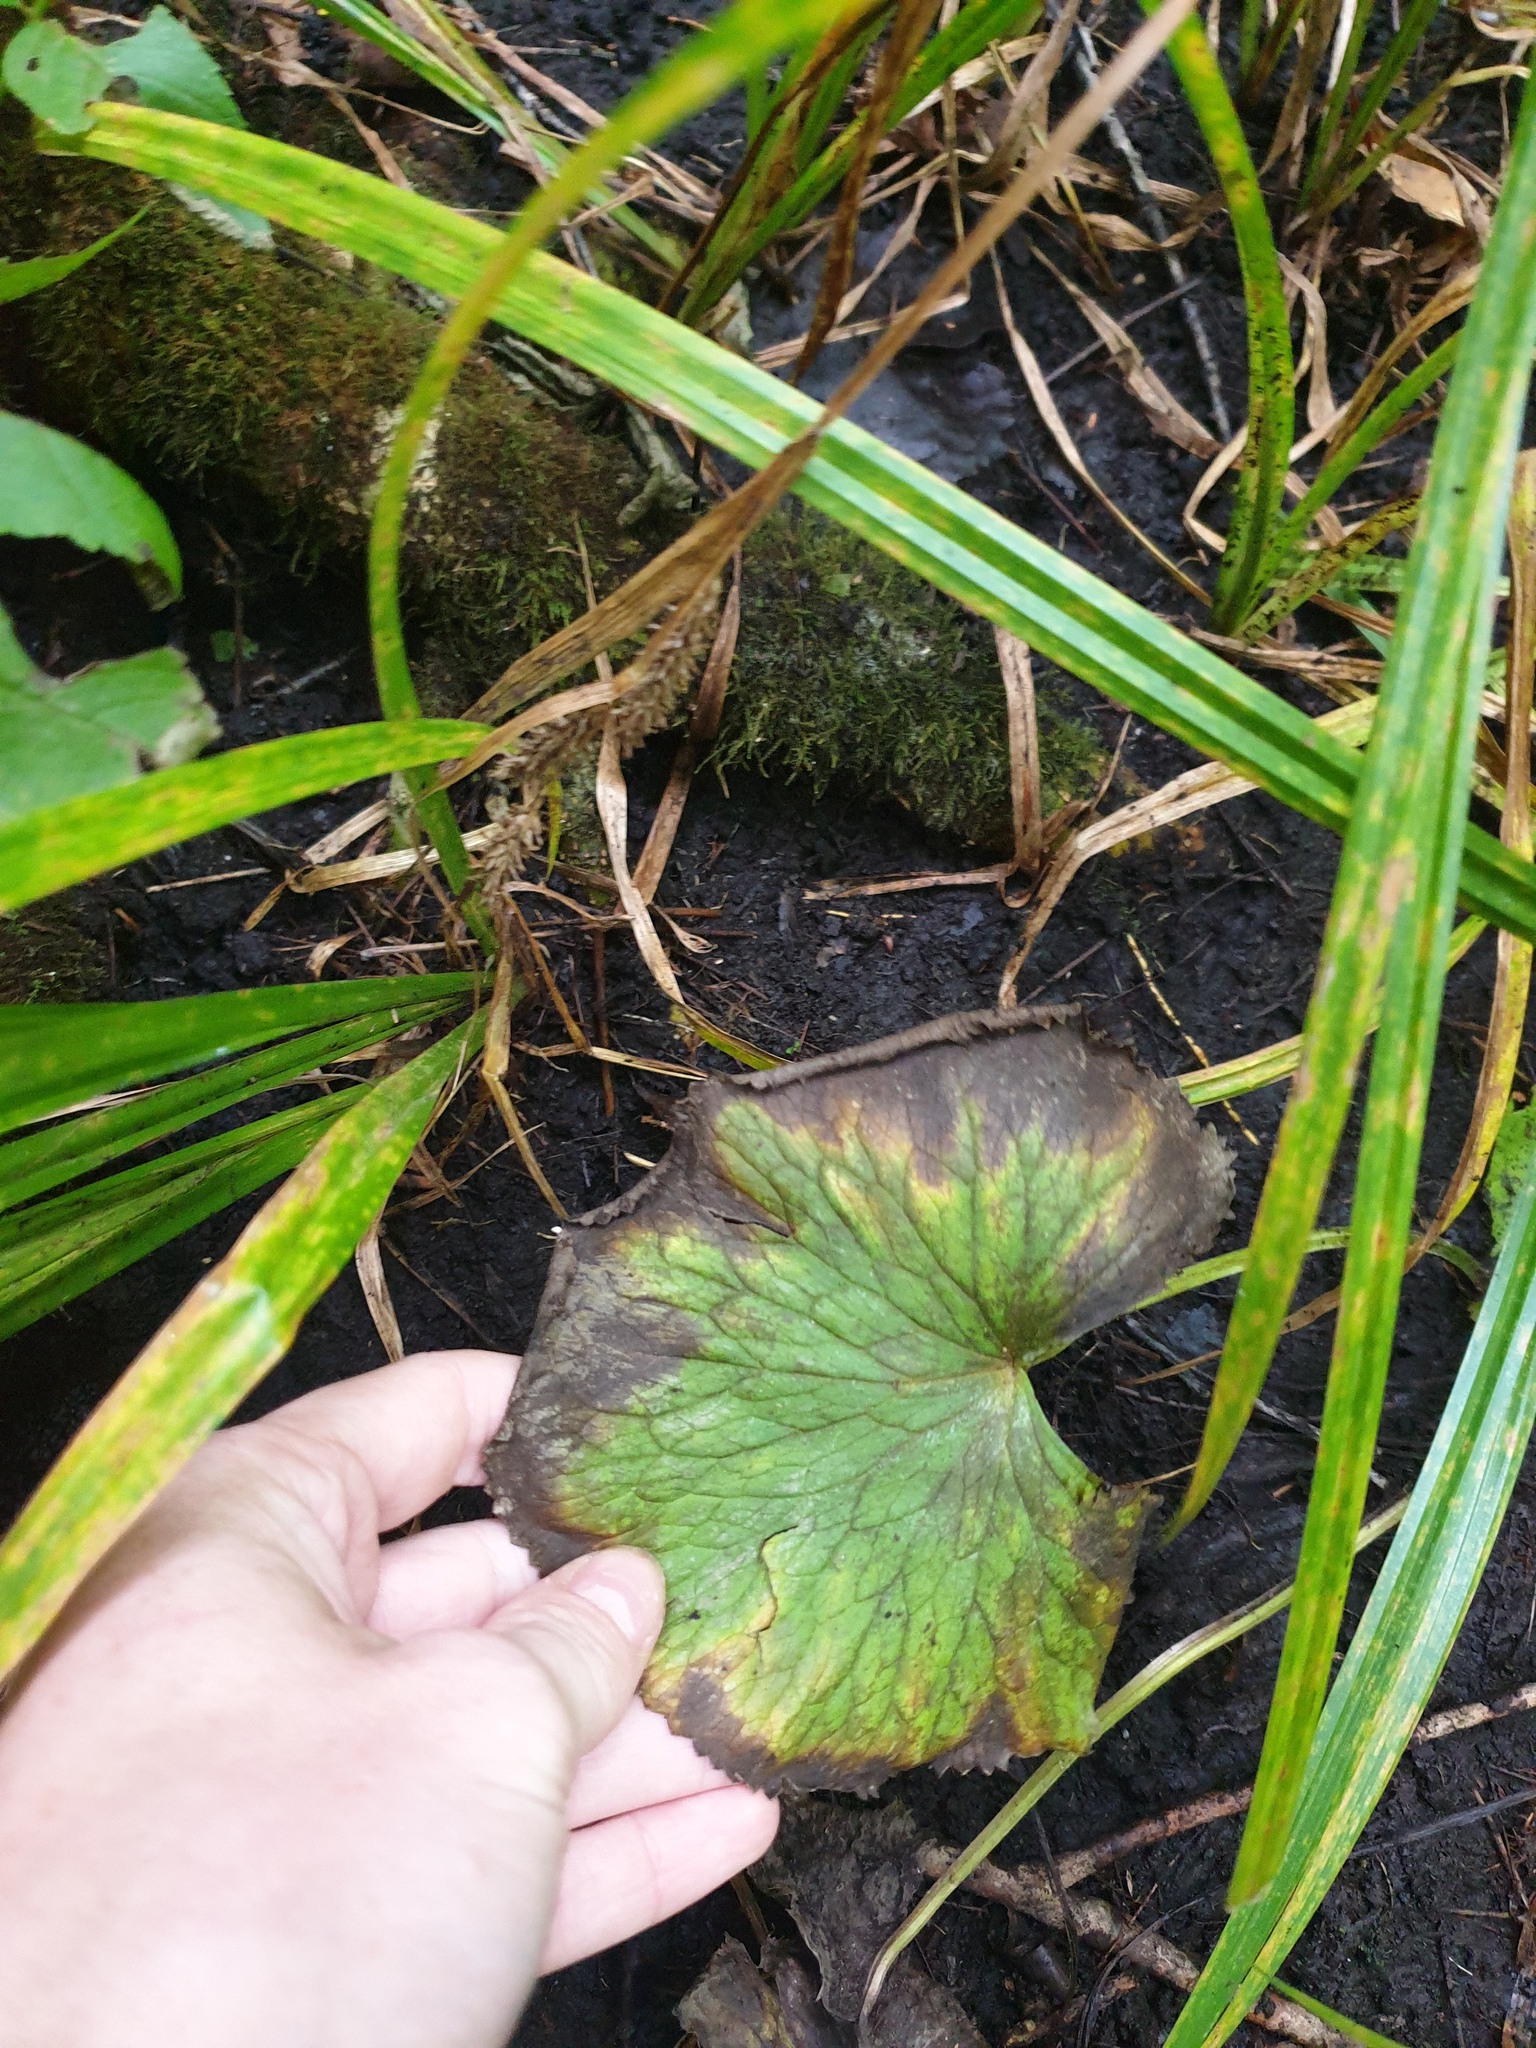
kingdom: Plantae
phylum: Tracheophyta
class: Magnoliopsida
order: Ranunculales
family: Ranunculaceae
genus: Caltha
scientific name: Caltha palustris
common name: Marsh marigold
